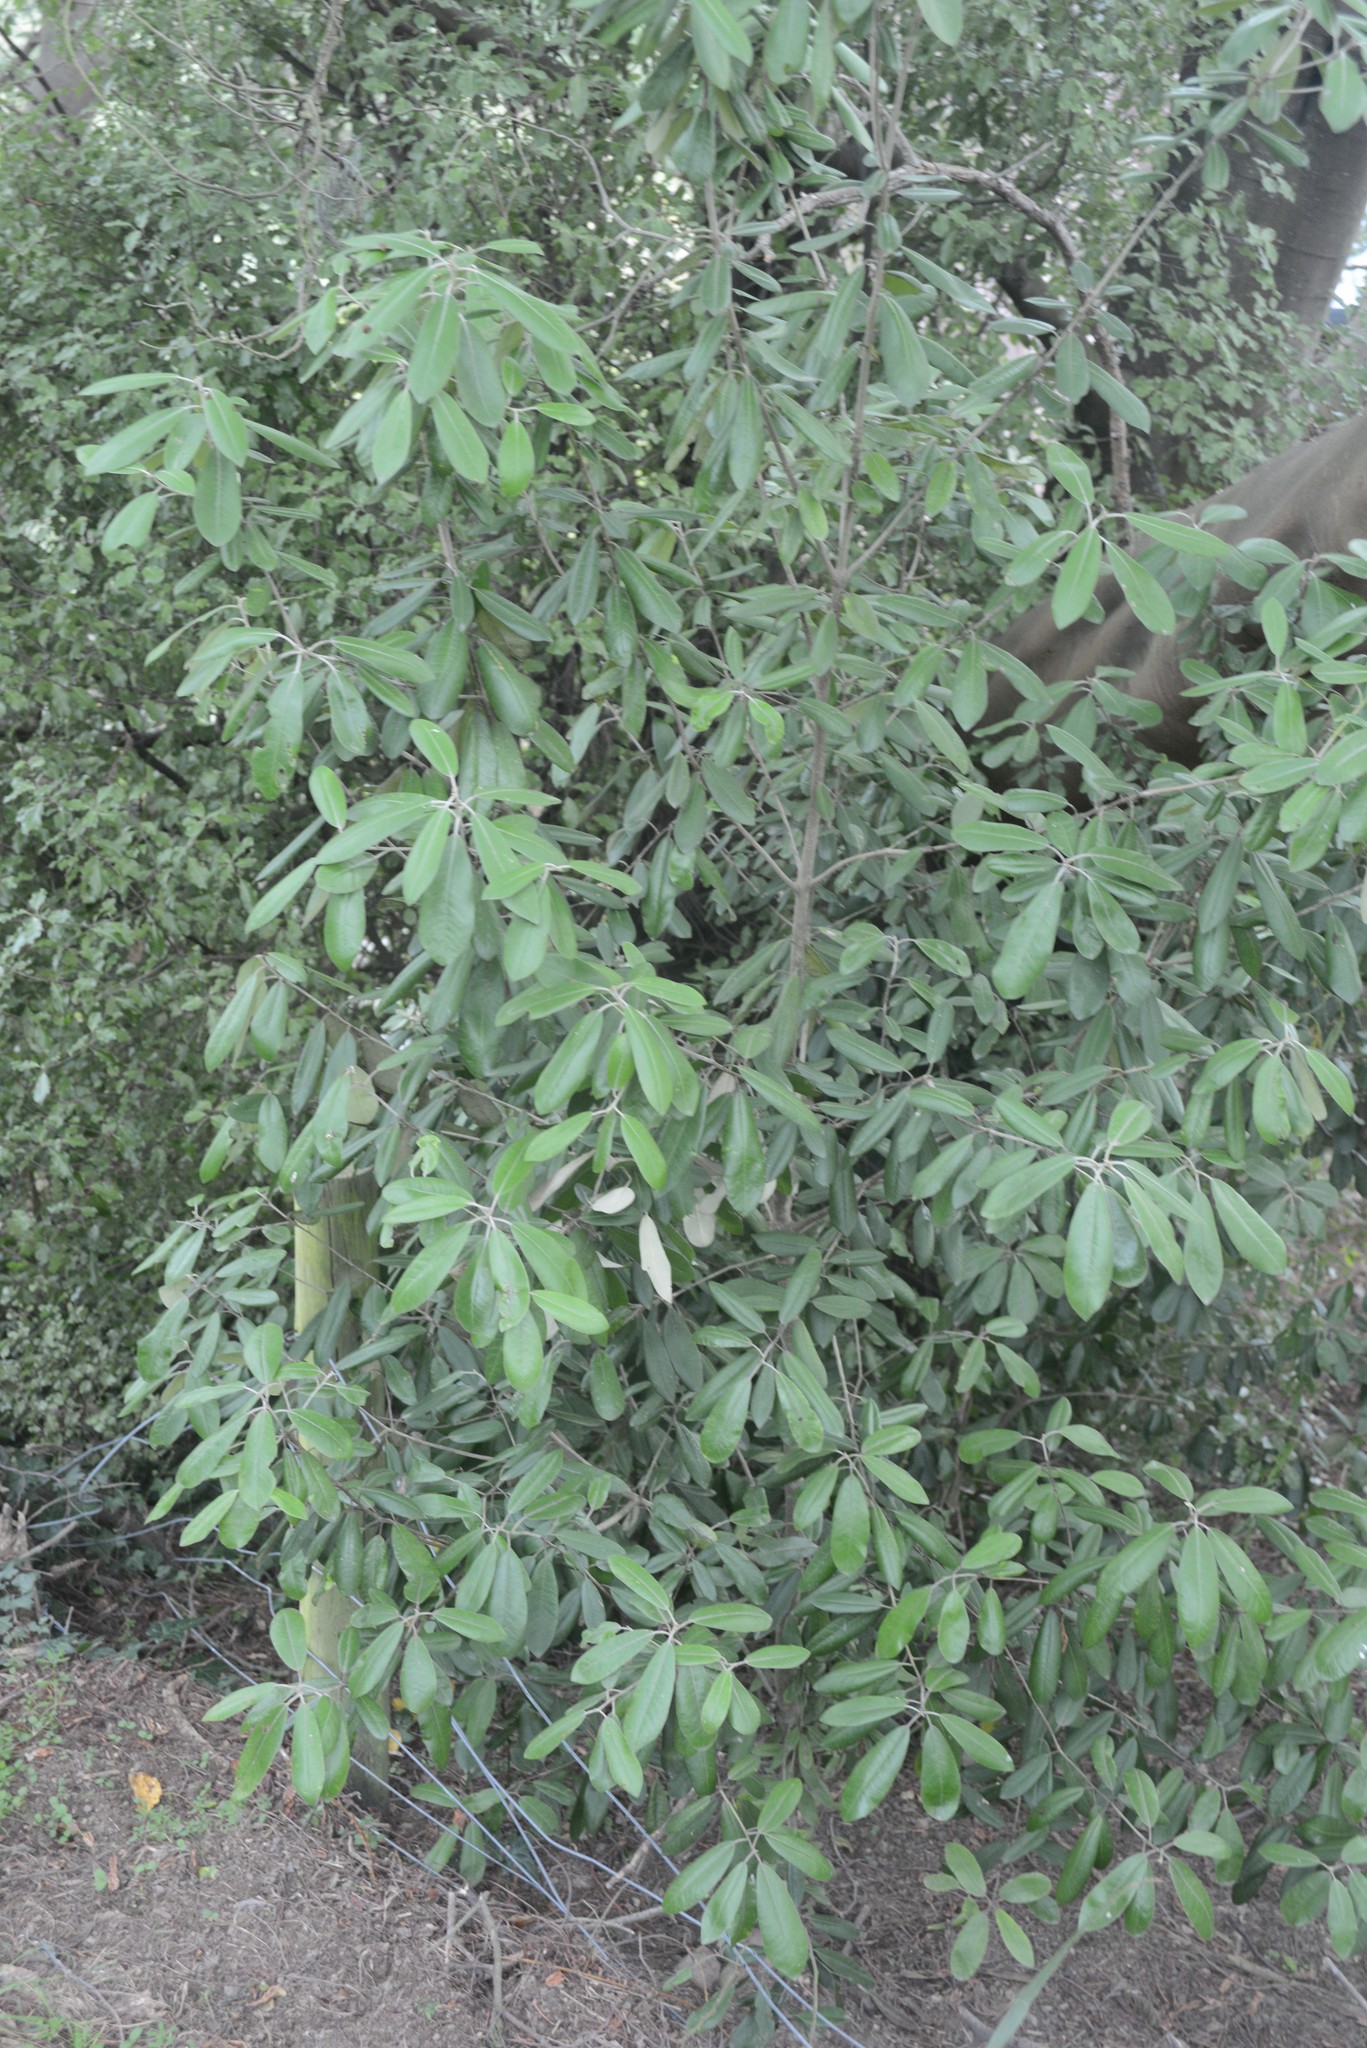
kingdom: Plantae
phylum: Tracheophyta
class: Magnoliopsida
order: Apiales
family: Pittosporaceae
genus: Pittosporum
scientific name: Pittosporum ralphii
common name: Ralph's desertwillow
